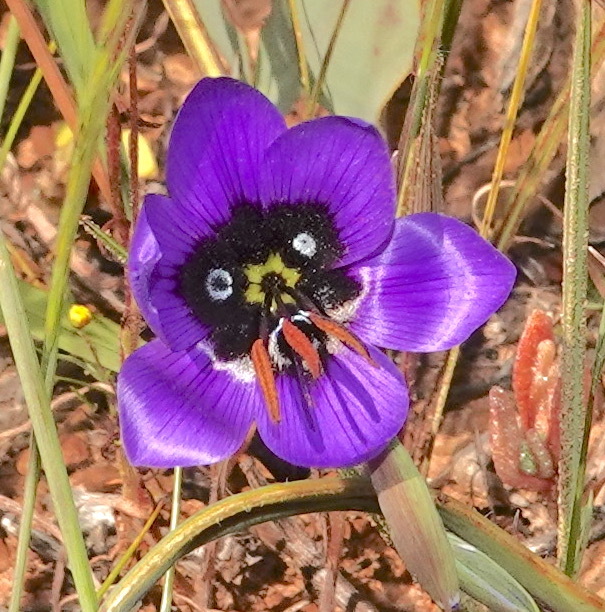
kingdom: Plantae
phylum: Tracheophyta
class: Liliopsida
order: Asparagales
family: Iridaceae
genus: Geissorhiza
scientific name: Geissorhiza splendidissima
